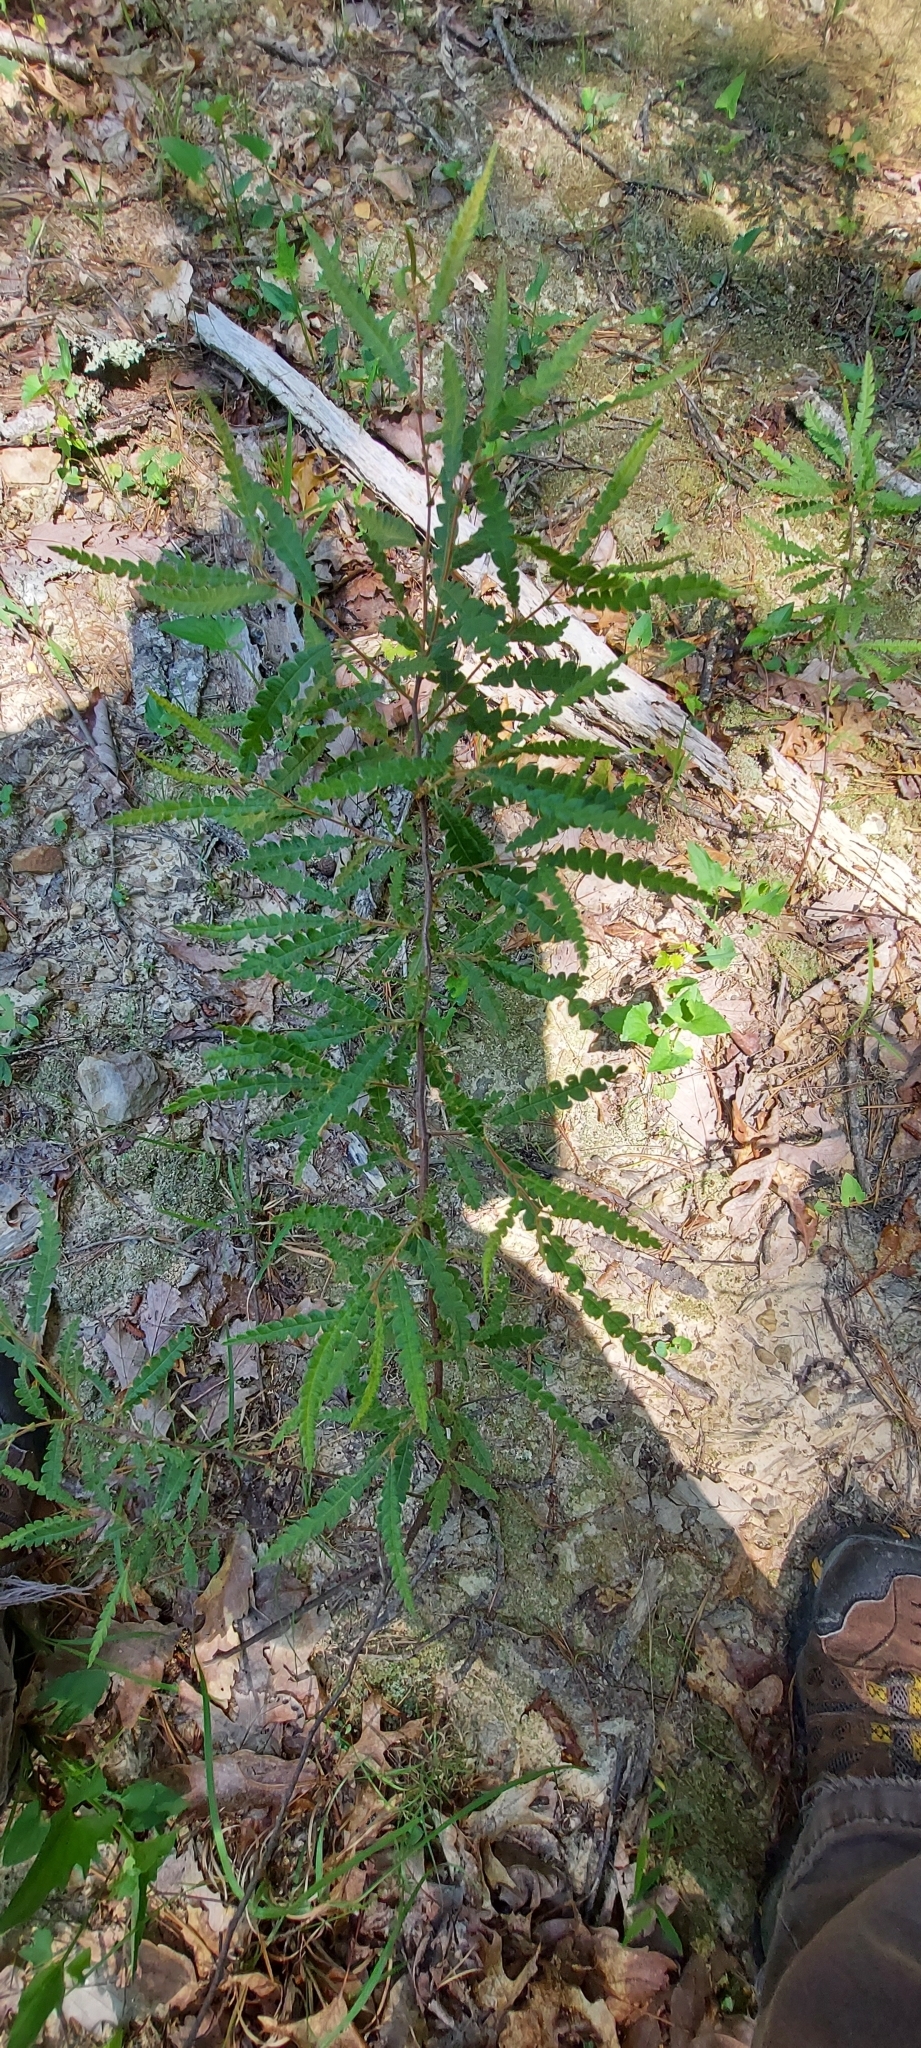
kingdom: Plantae
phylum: Tracheophyta
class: Magnoliopsida
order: Fagales
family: Myricaceae
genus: Comptonia
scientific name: Comptonia peregrina
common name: Sweet-fern
